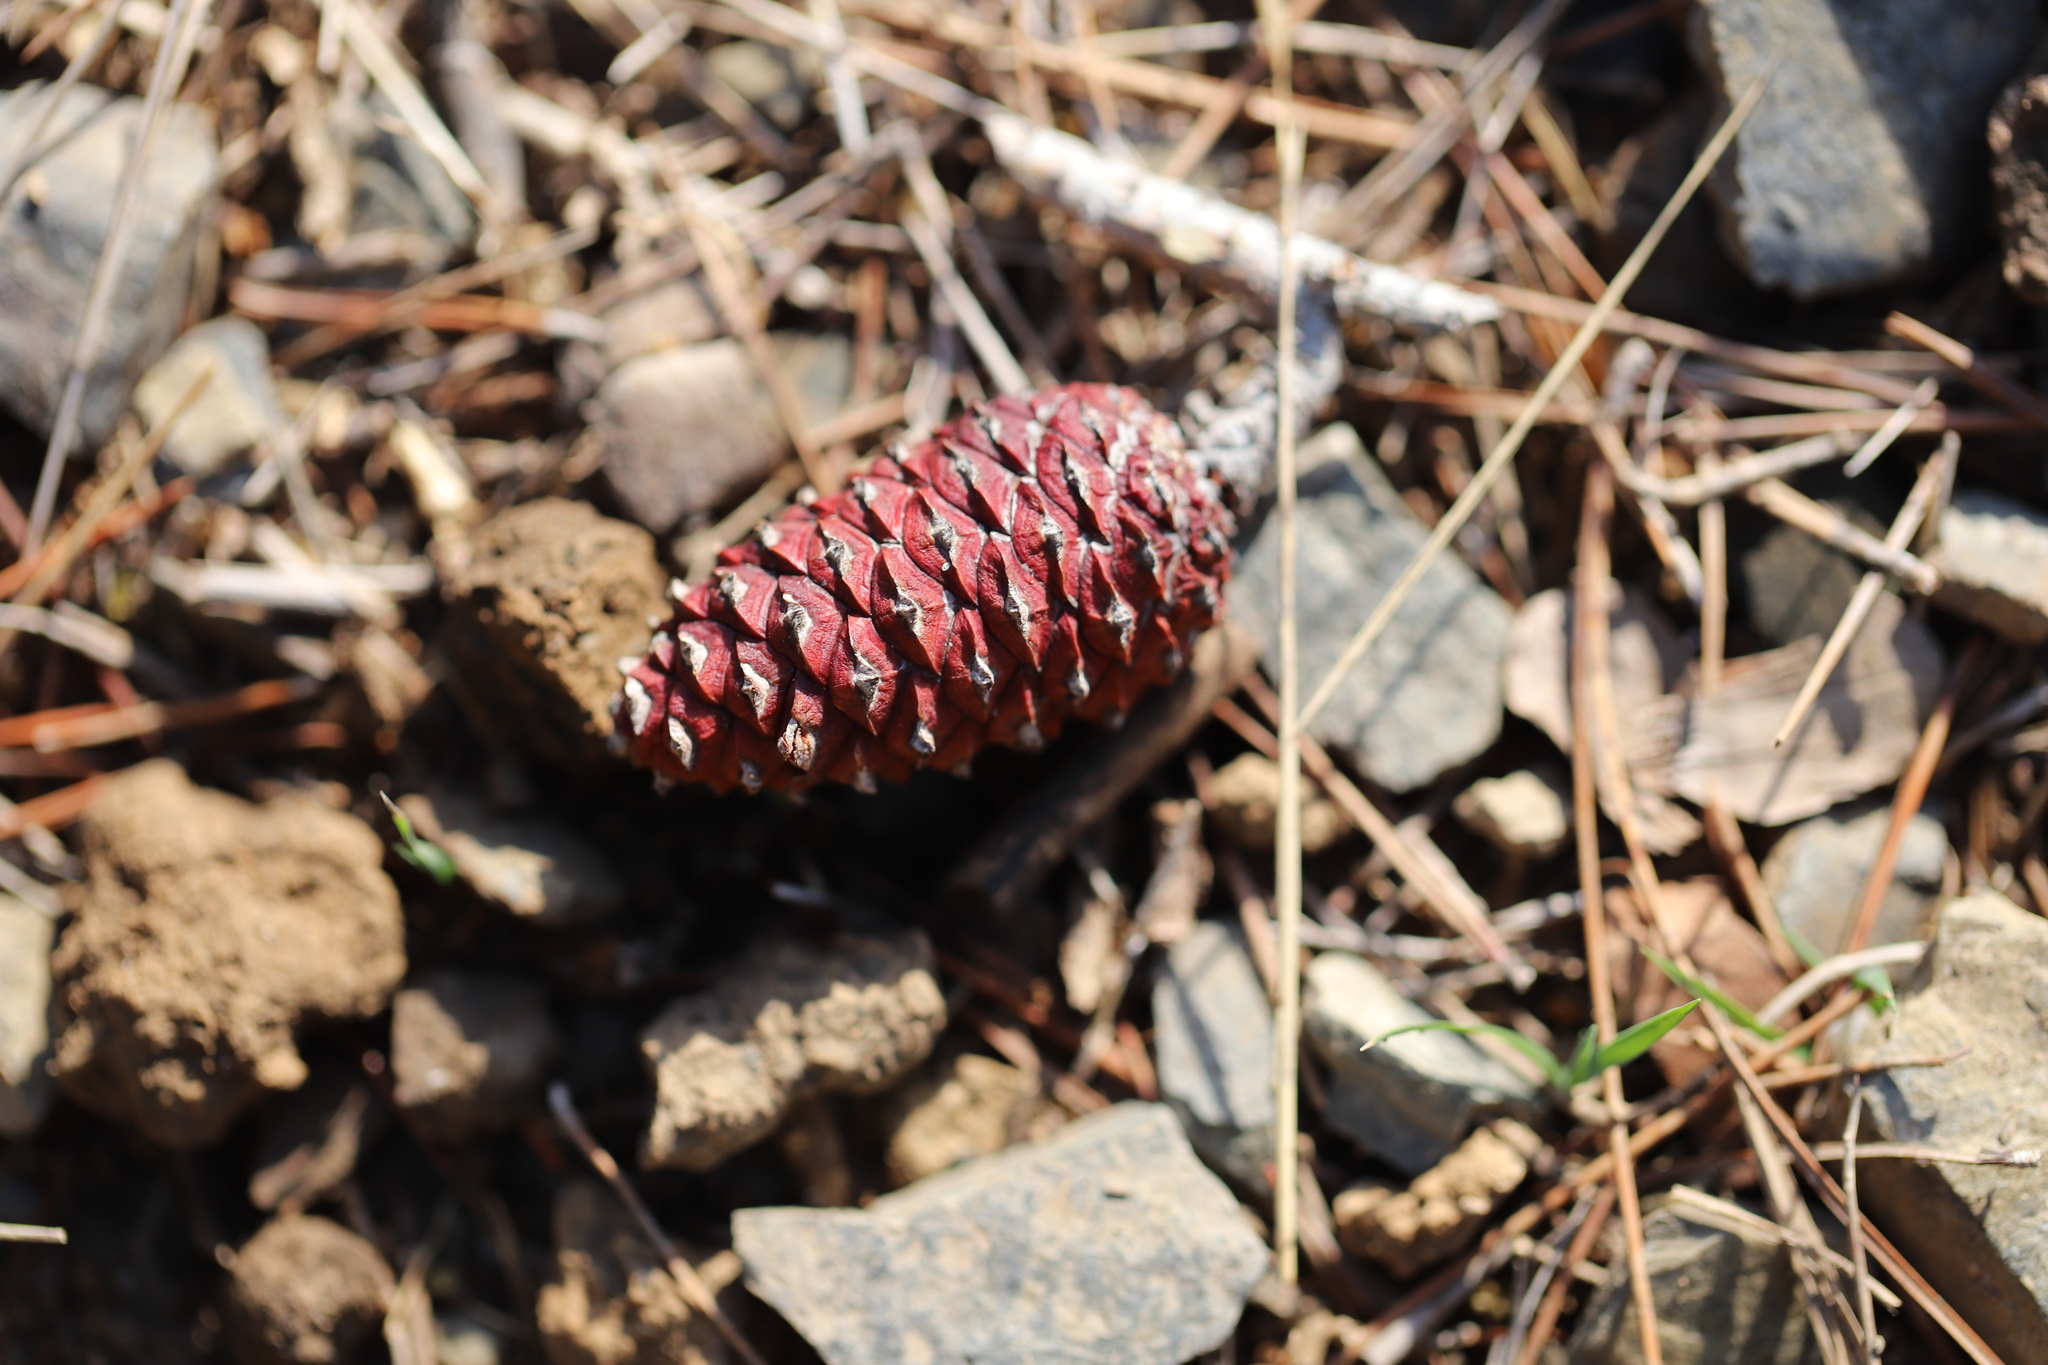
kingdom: Plantae
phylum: Tracheophyta
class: Pinopsida
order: Pinales
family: Pinaceae
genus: Pinus
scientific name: Pinus halepensis
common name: Aleppo pine
